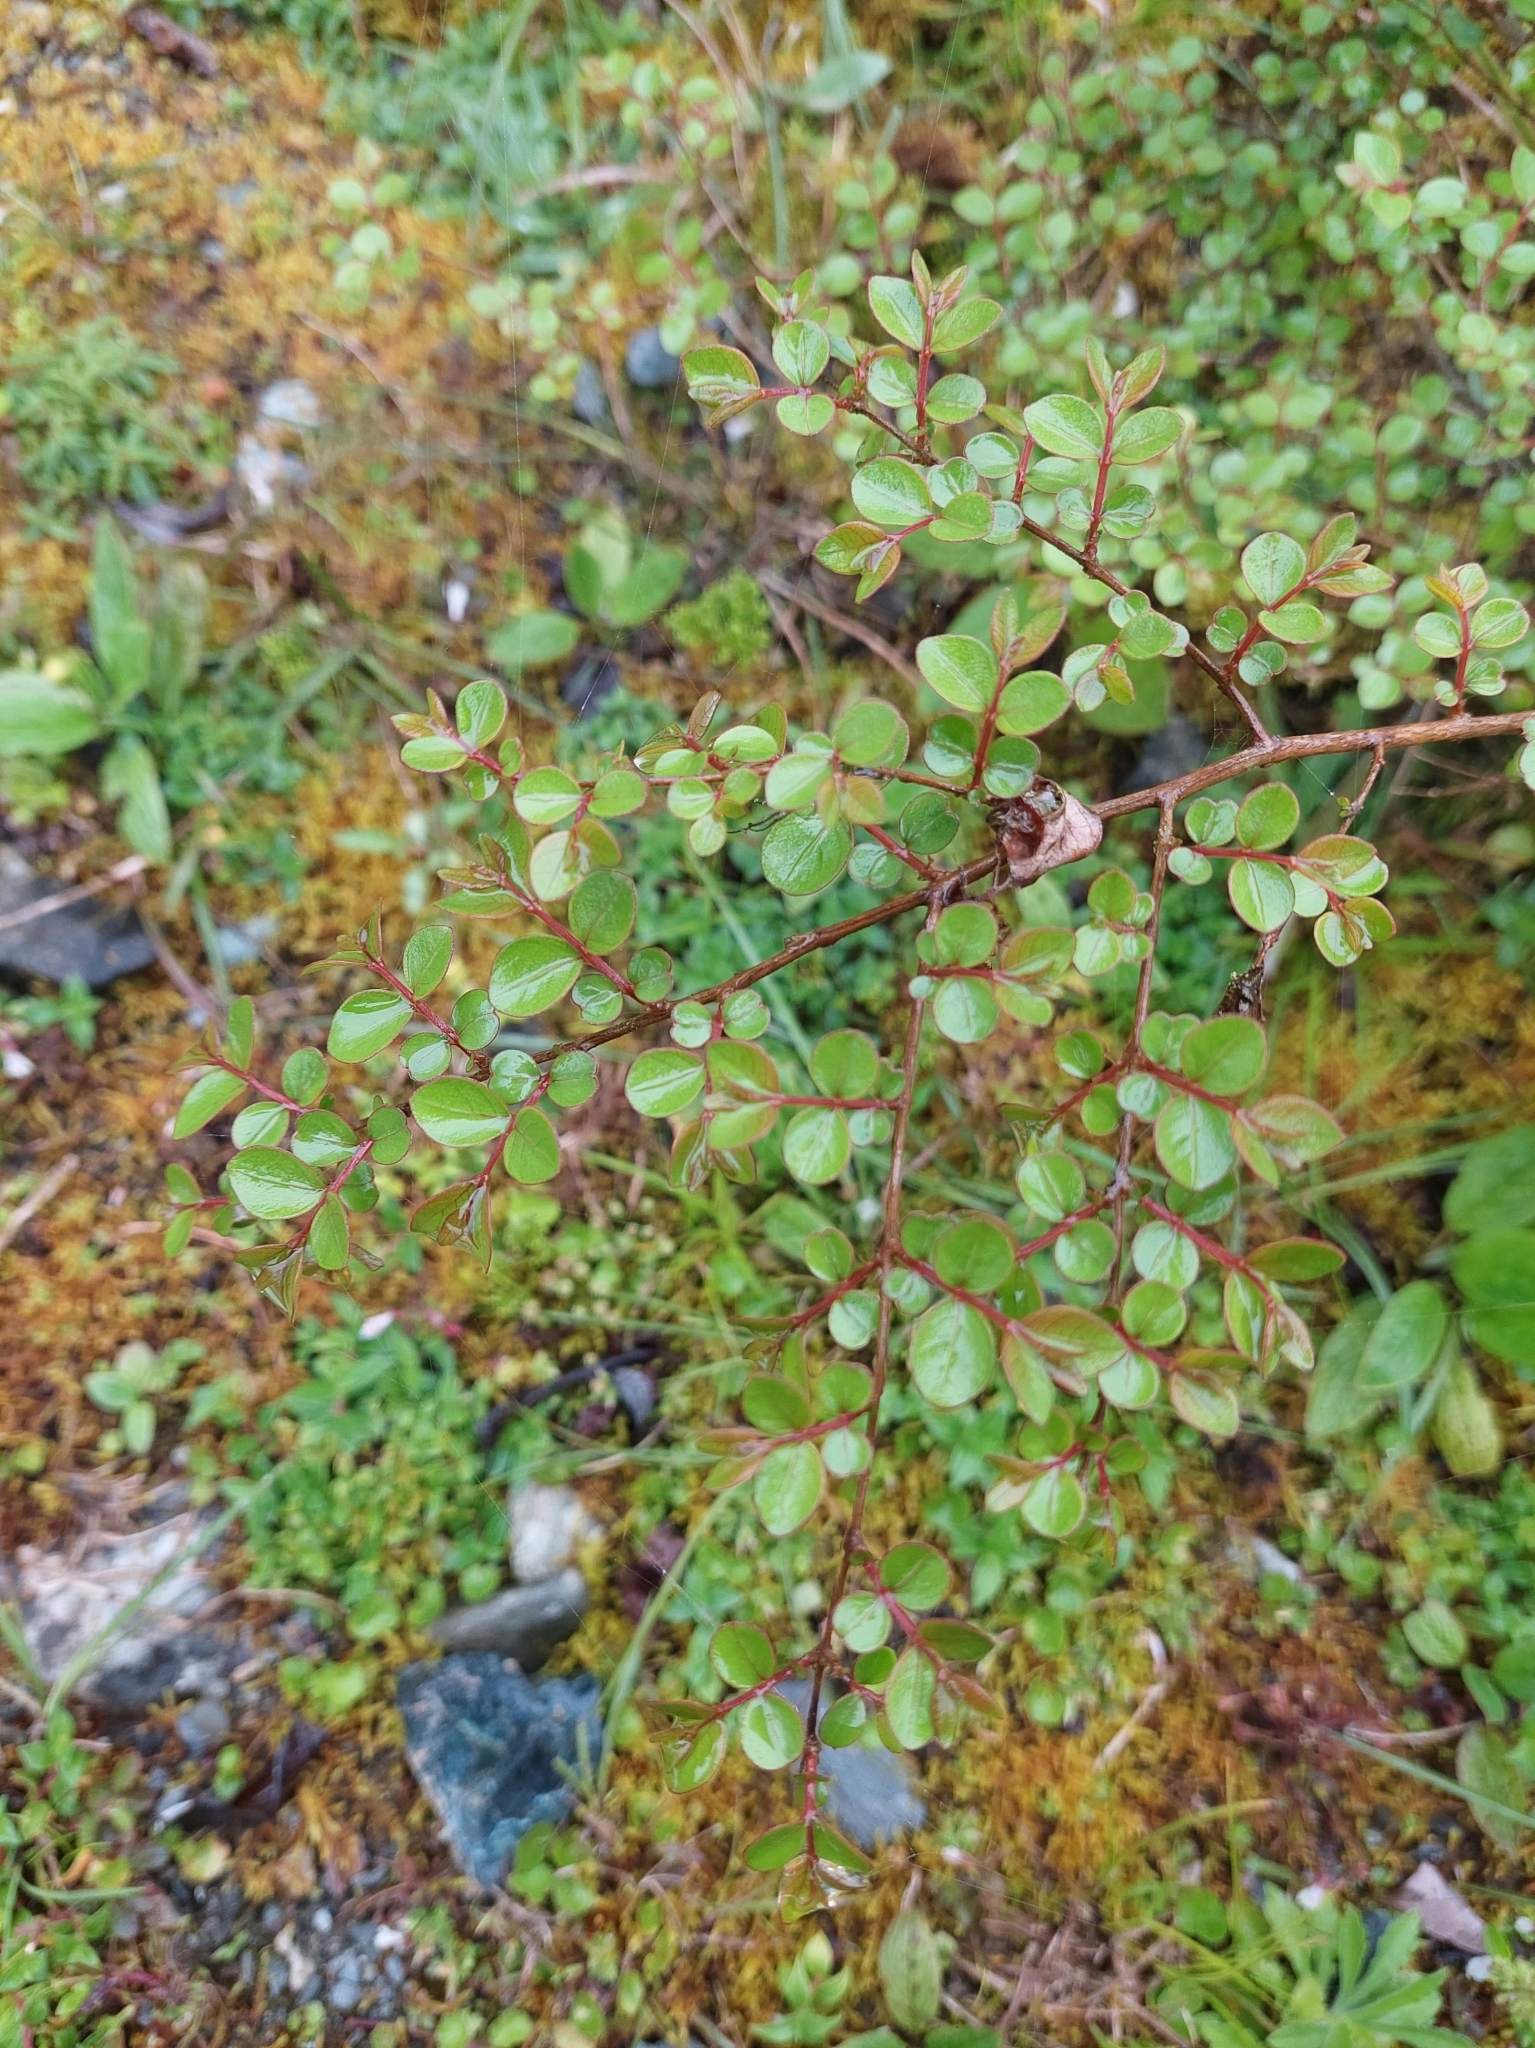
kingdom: Plantae
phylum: Tracheophyta
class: Magnoliopsida
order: Myrtales
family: Lythraceae
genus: Lagerstroemia
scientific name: Lagerstroemia subcostata
